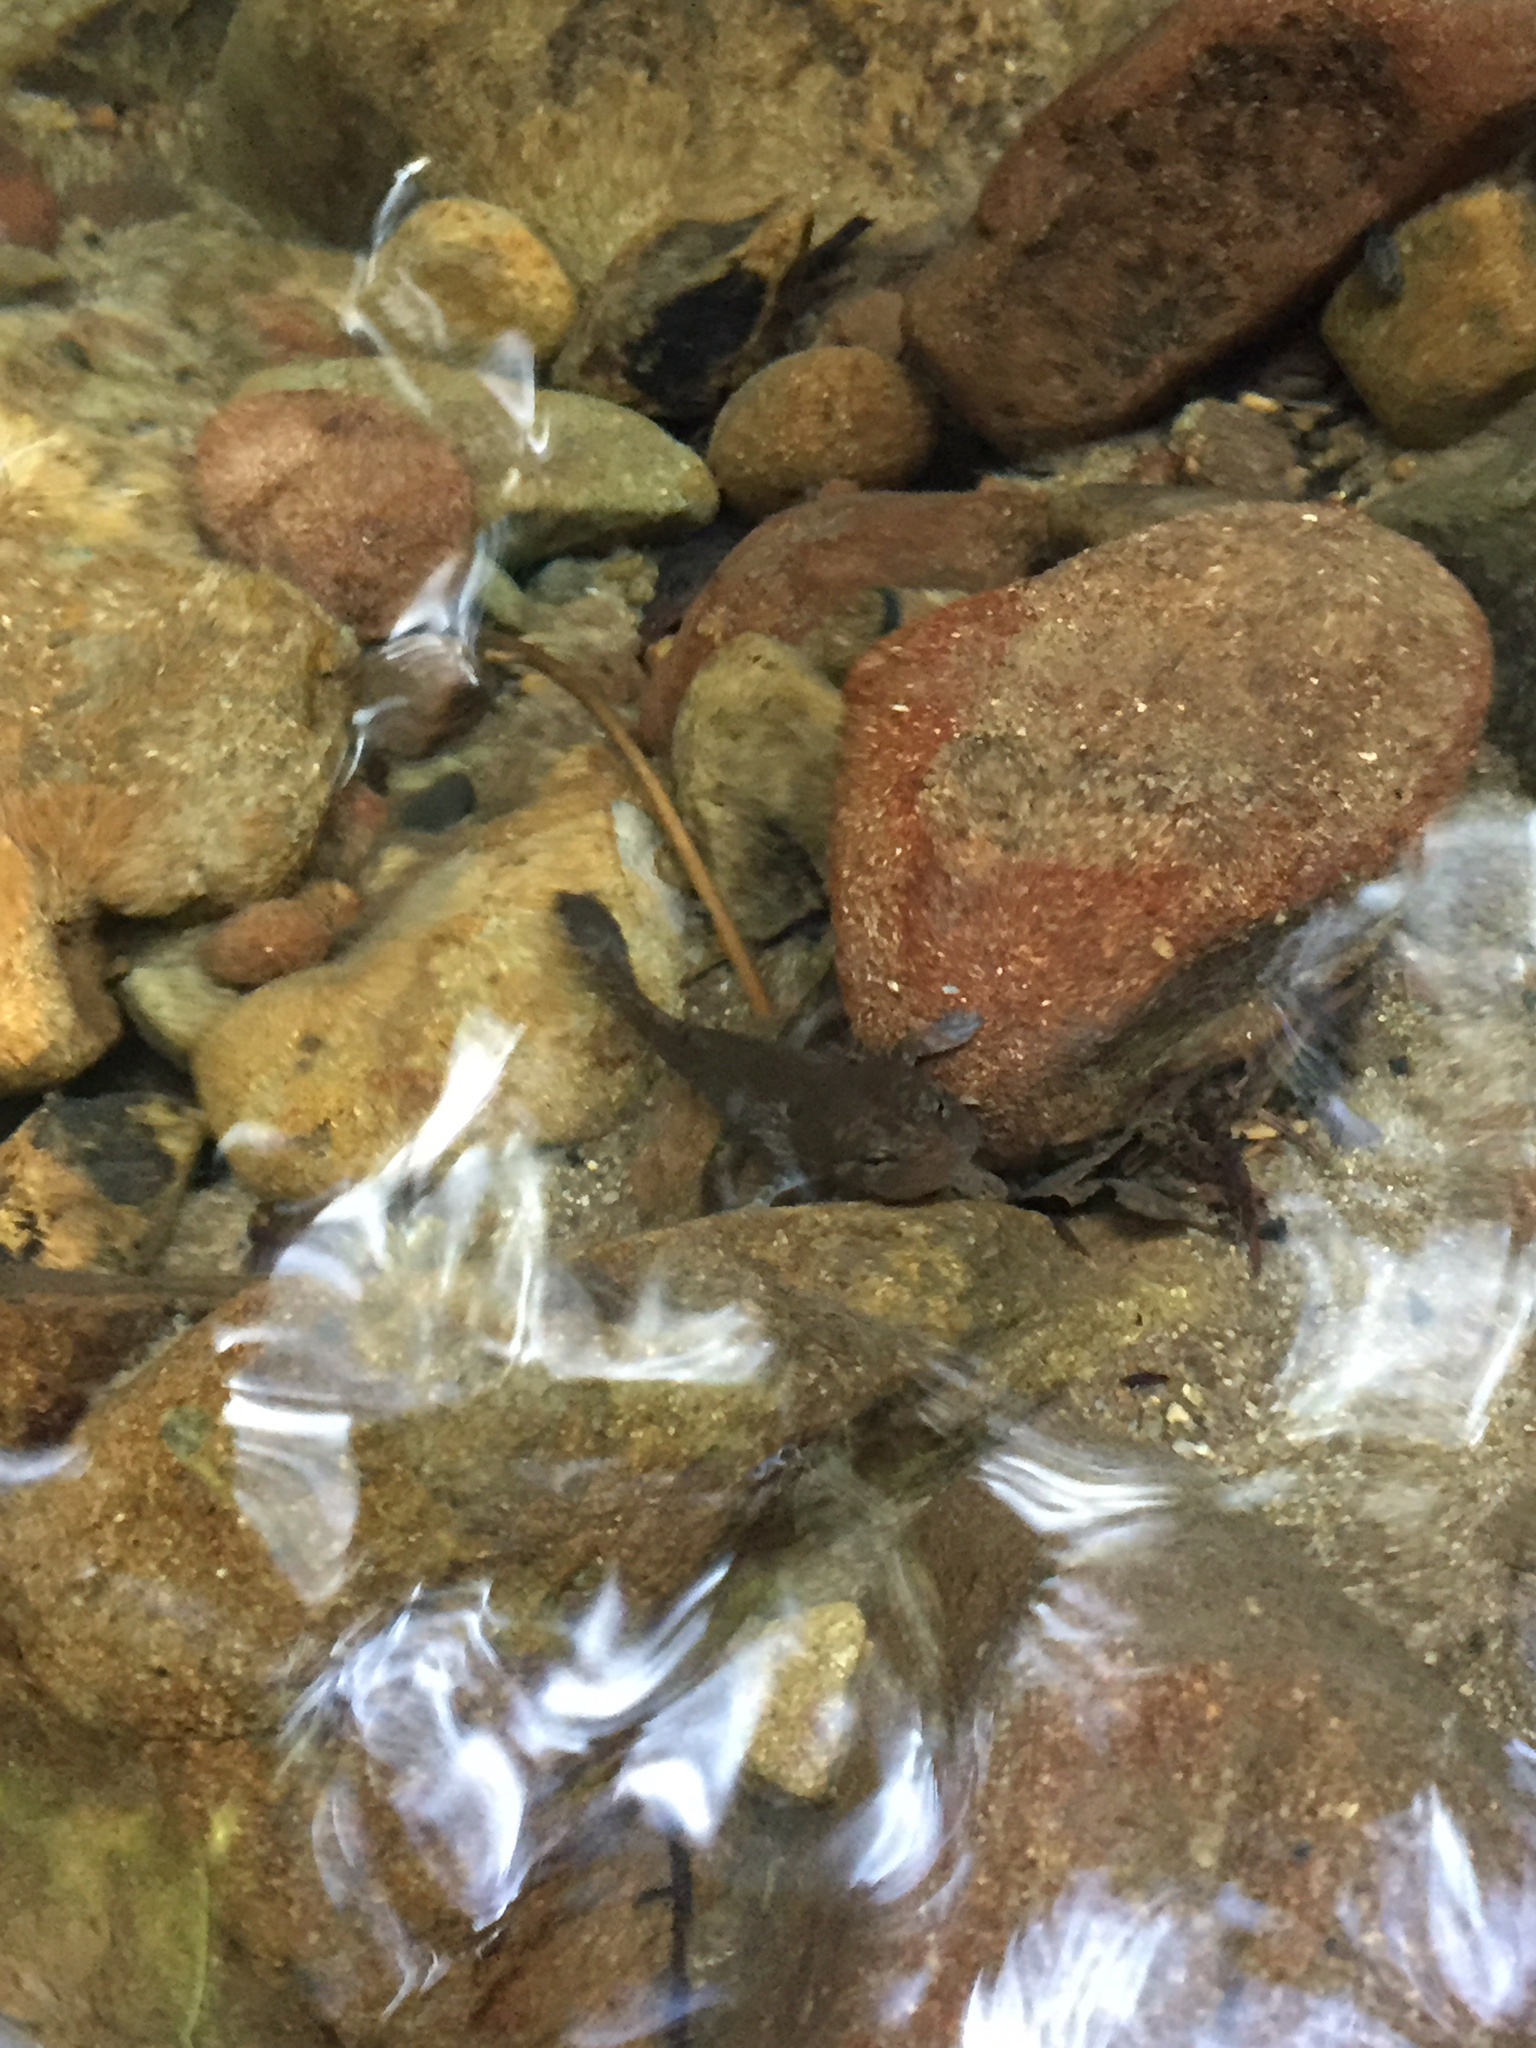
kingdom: Animalia
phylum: Chordata
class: Amphibia
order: Caudata
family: Ambystomatidae
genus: Dicamptodon
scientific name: Dicamptodon ensatus
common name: California giant salamander
